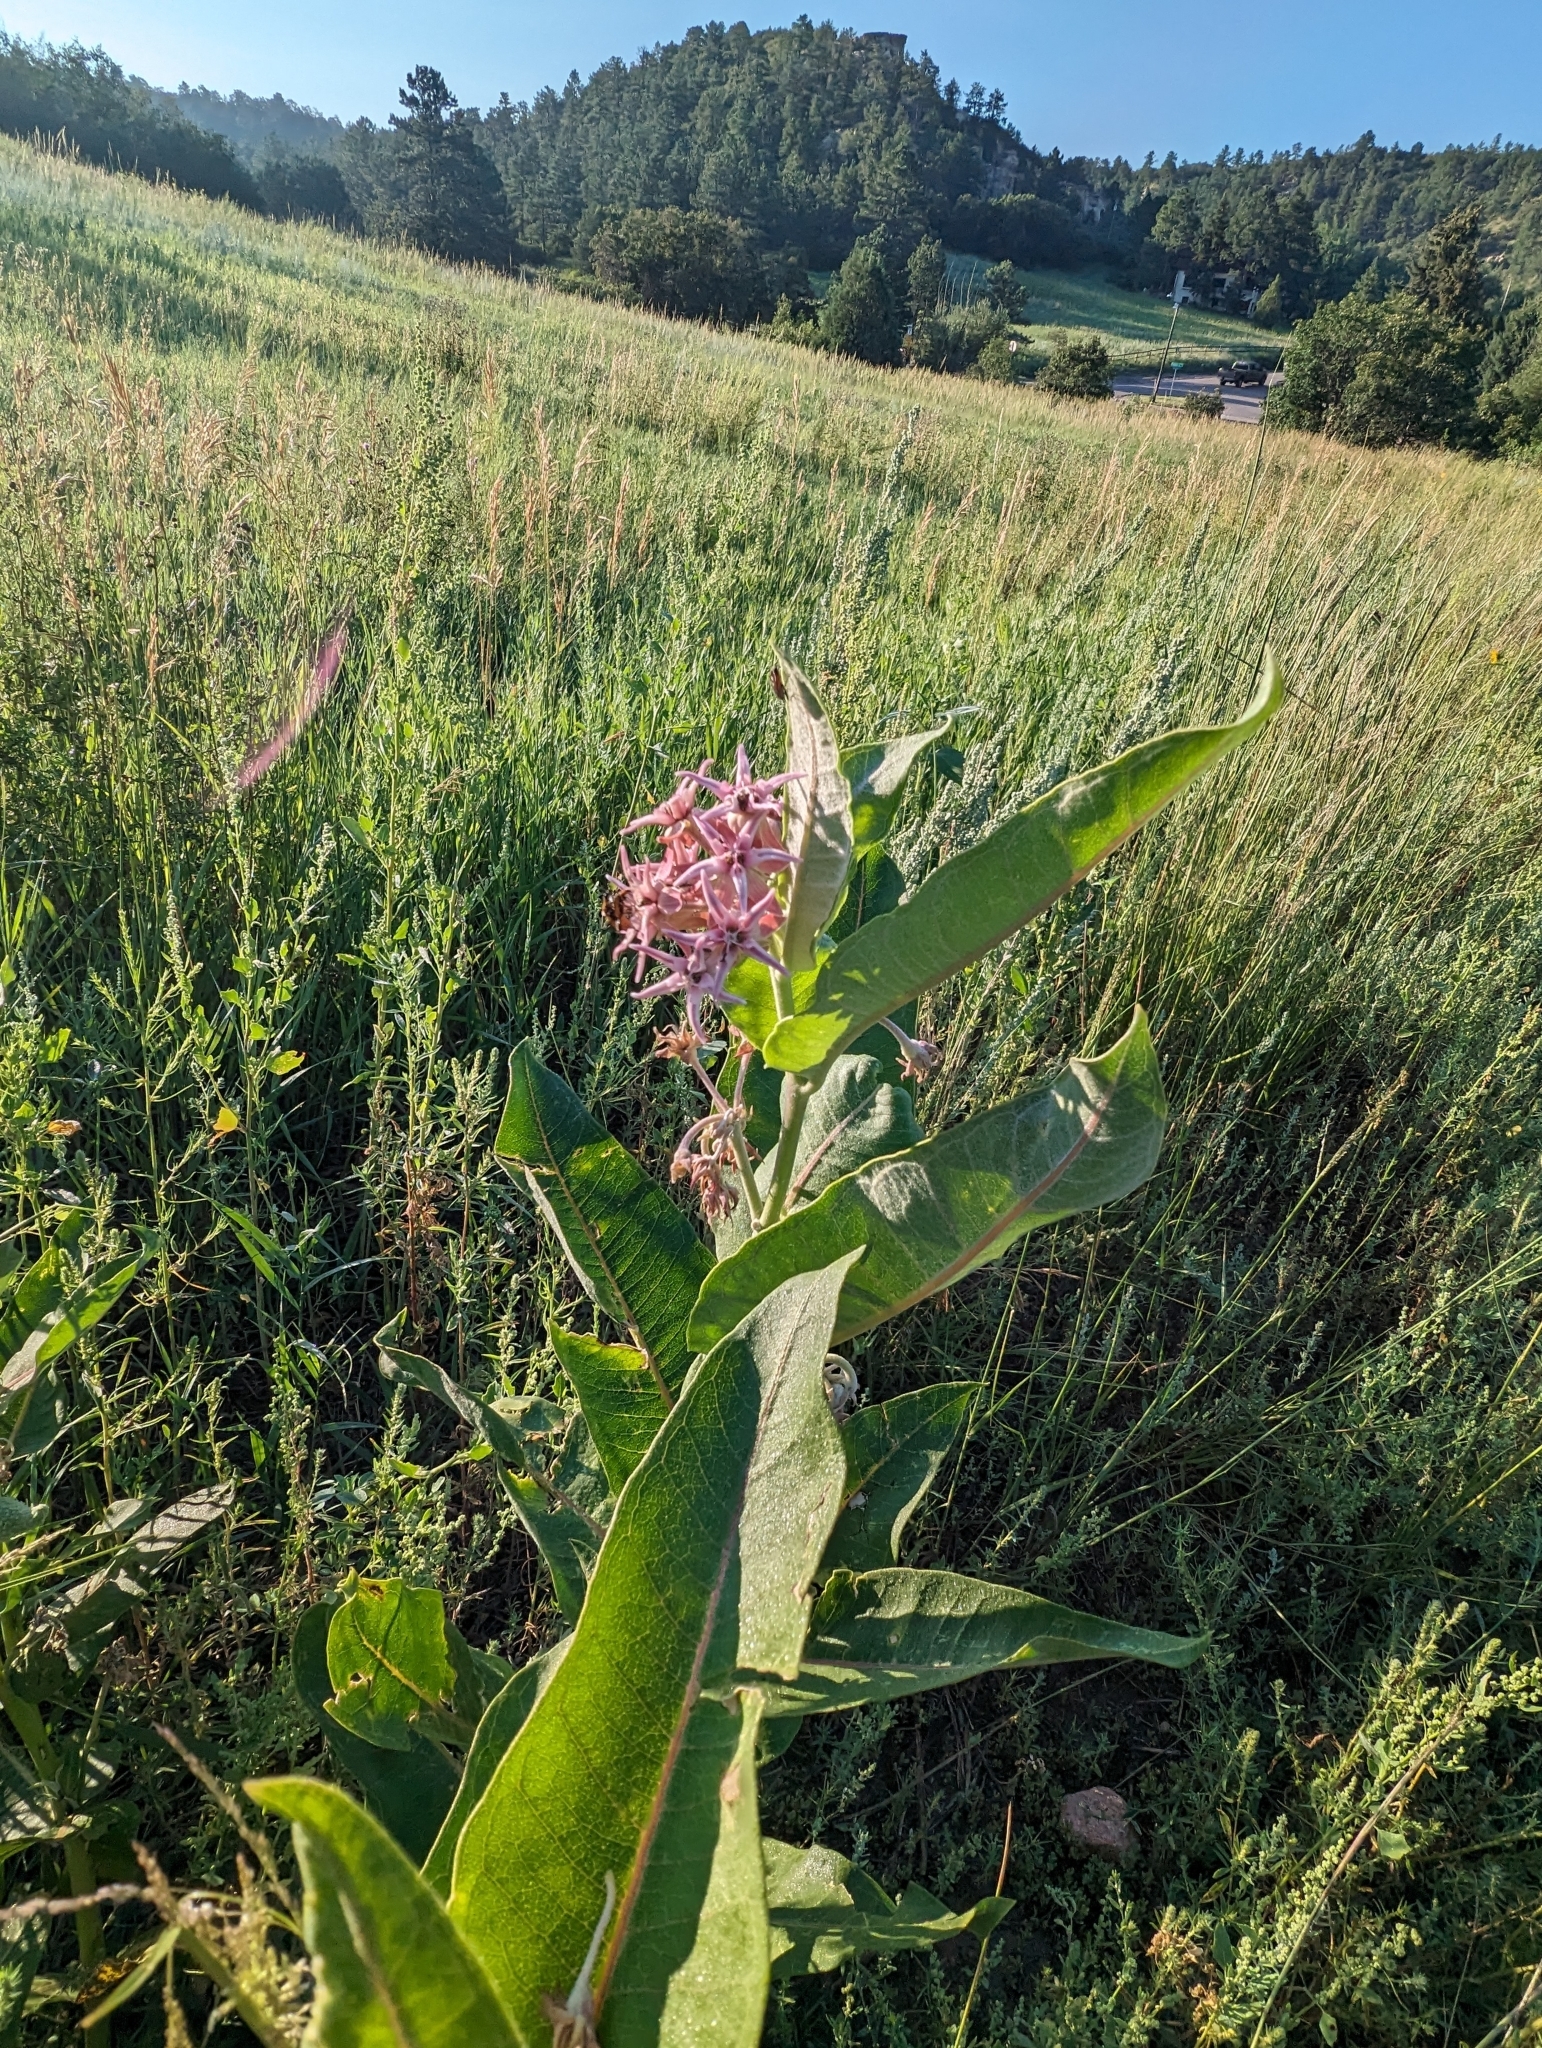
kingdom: Plantae
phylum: Tracheophyta
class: Magnoliopsida
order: Gentianales
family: Apocynaceae
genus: Asclepias
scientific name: Asclepias speciosa
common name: Showy milkweed
